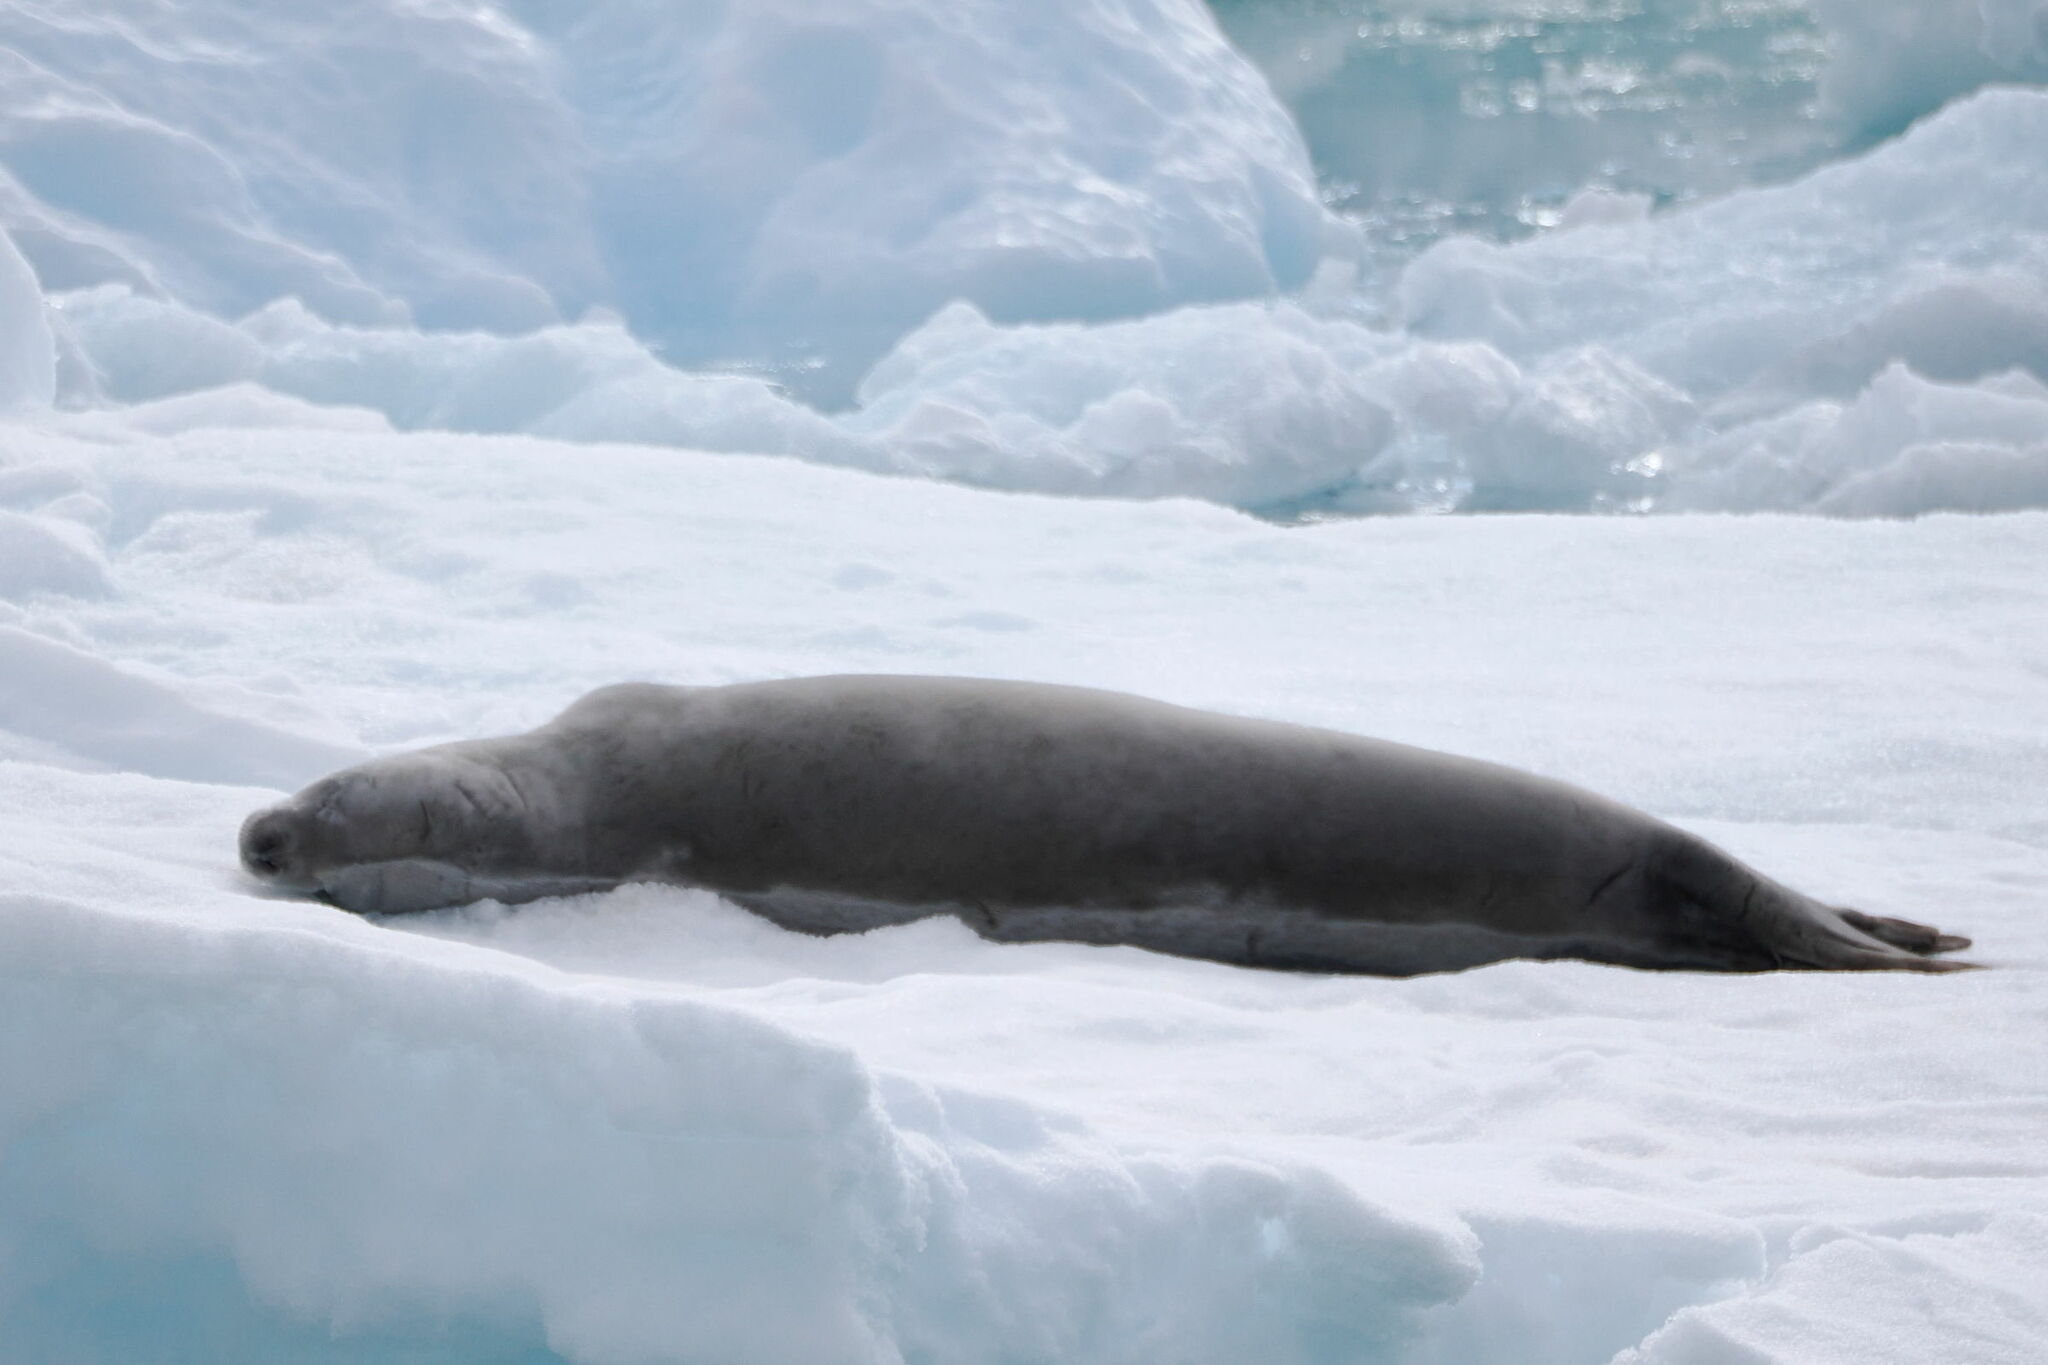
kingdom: Animalia
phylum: Chordata
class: Mammalia
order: Carnivora
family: Phocidae
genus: Lobodon
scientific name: Lobodon carcinophaga
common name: Crabeater seal
